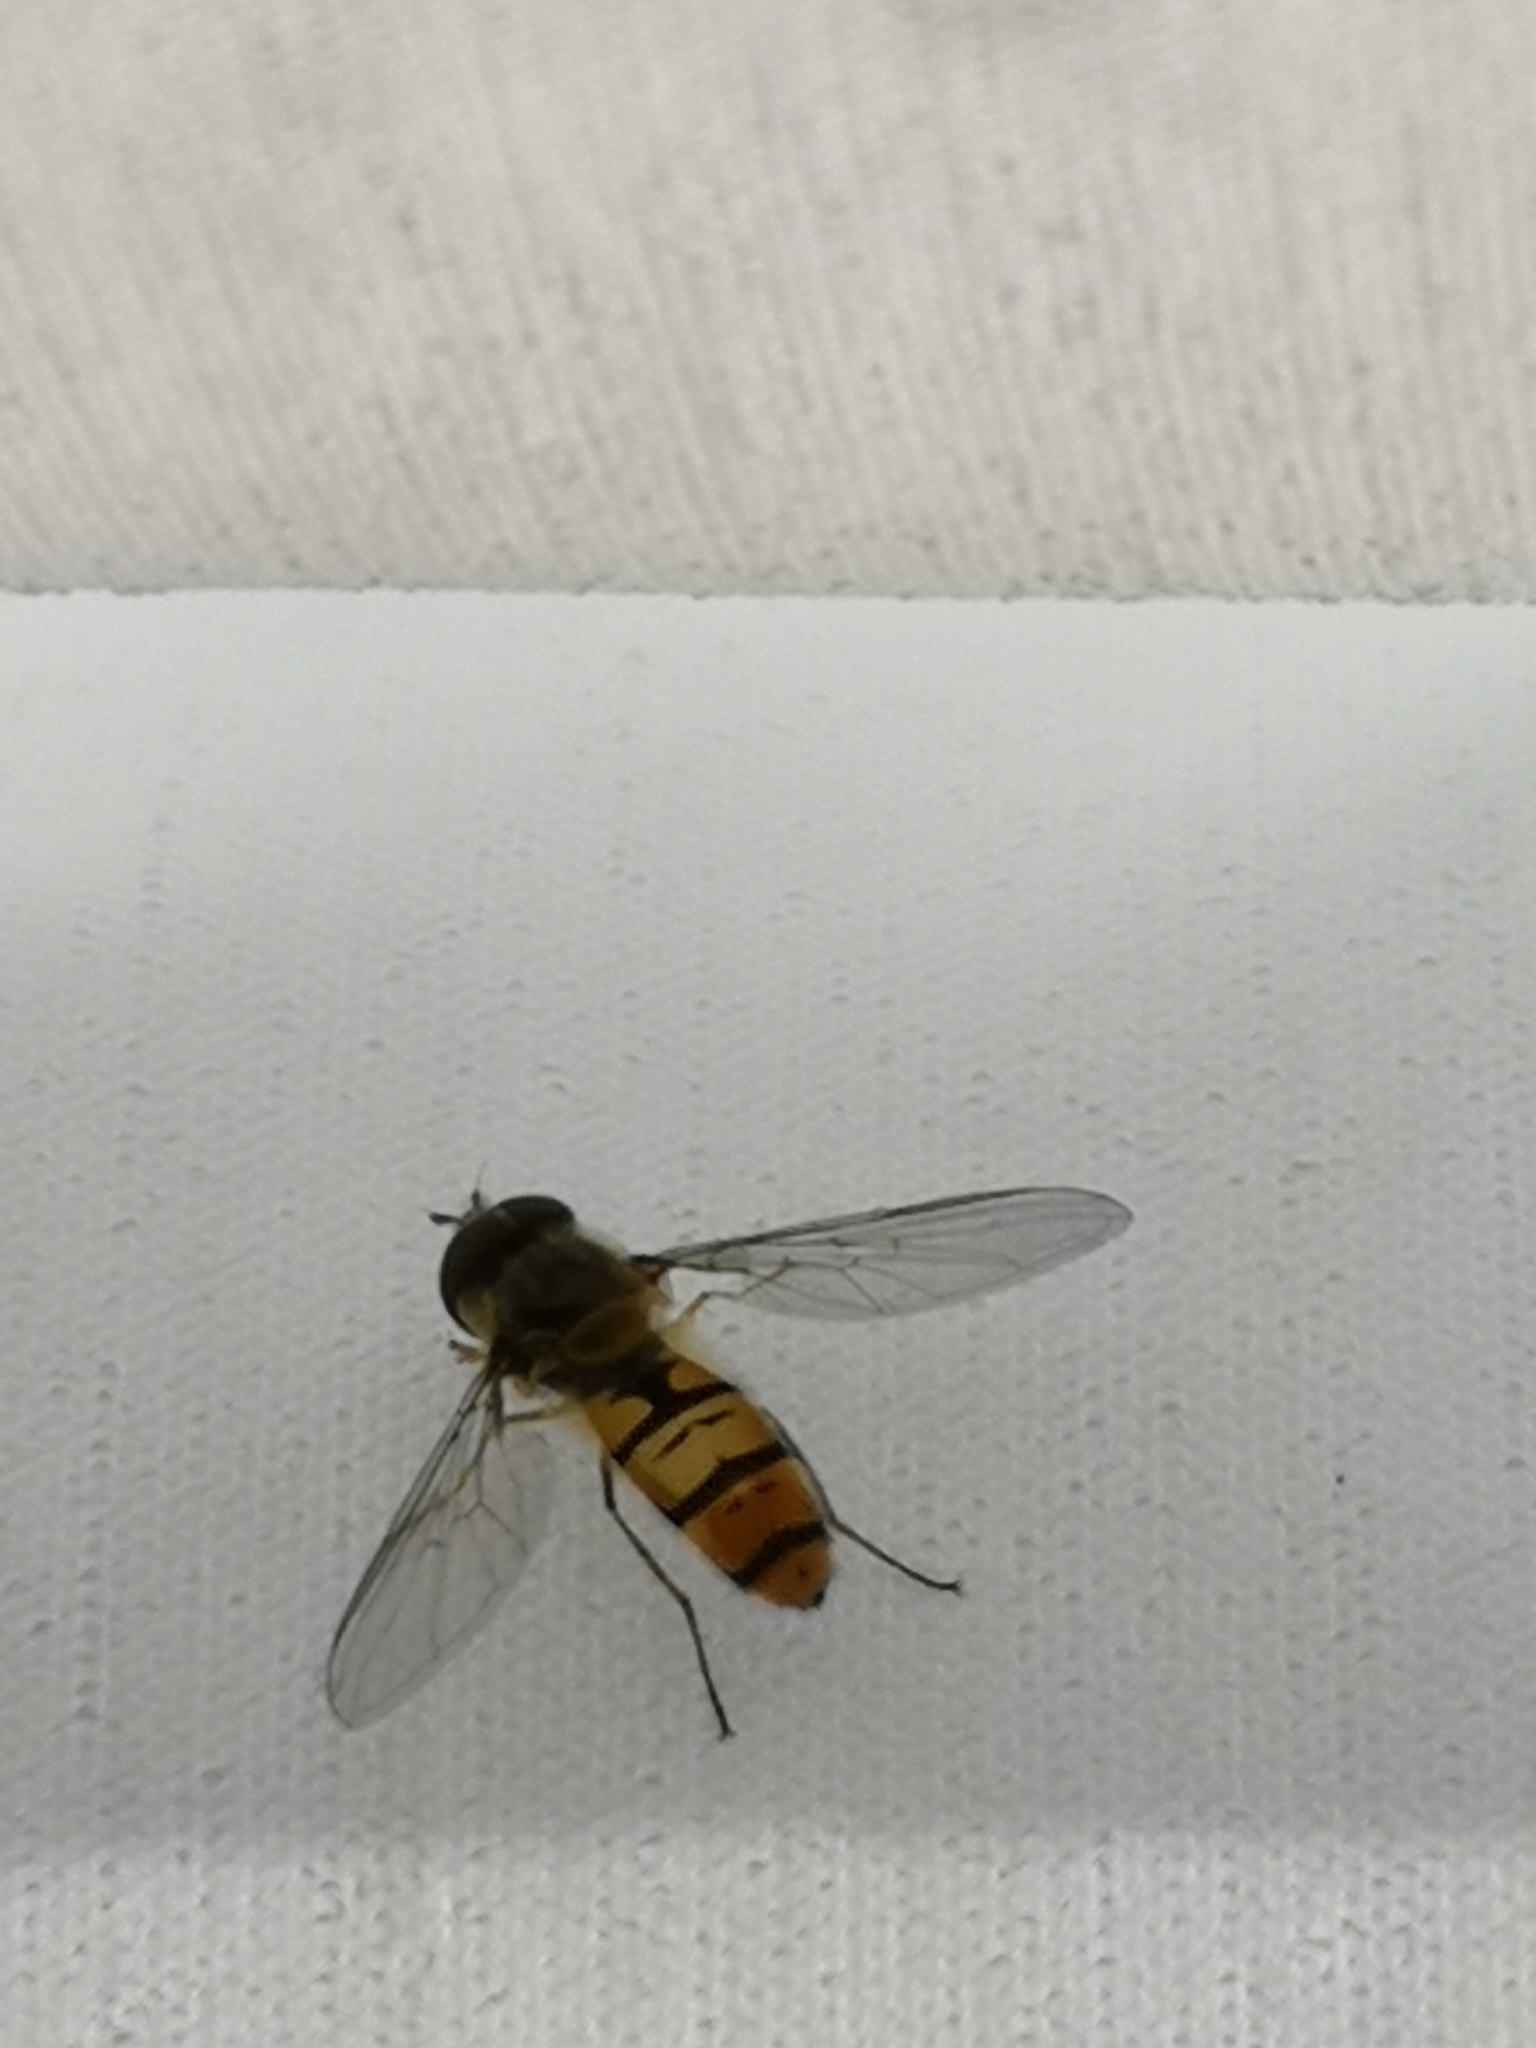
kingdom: Animalia
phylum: Arthropoda
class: Insecta
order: Diptera
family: Syrphidae
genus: Episyrphus
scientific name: Episyrphus balteatus
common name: Marmalade hoverfly
